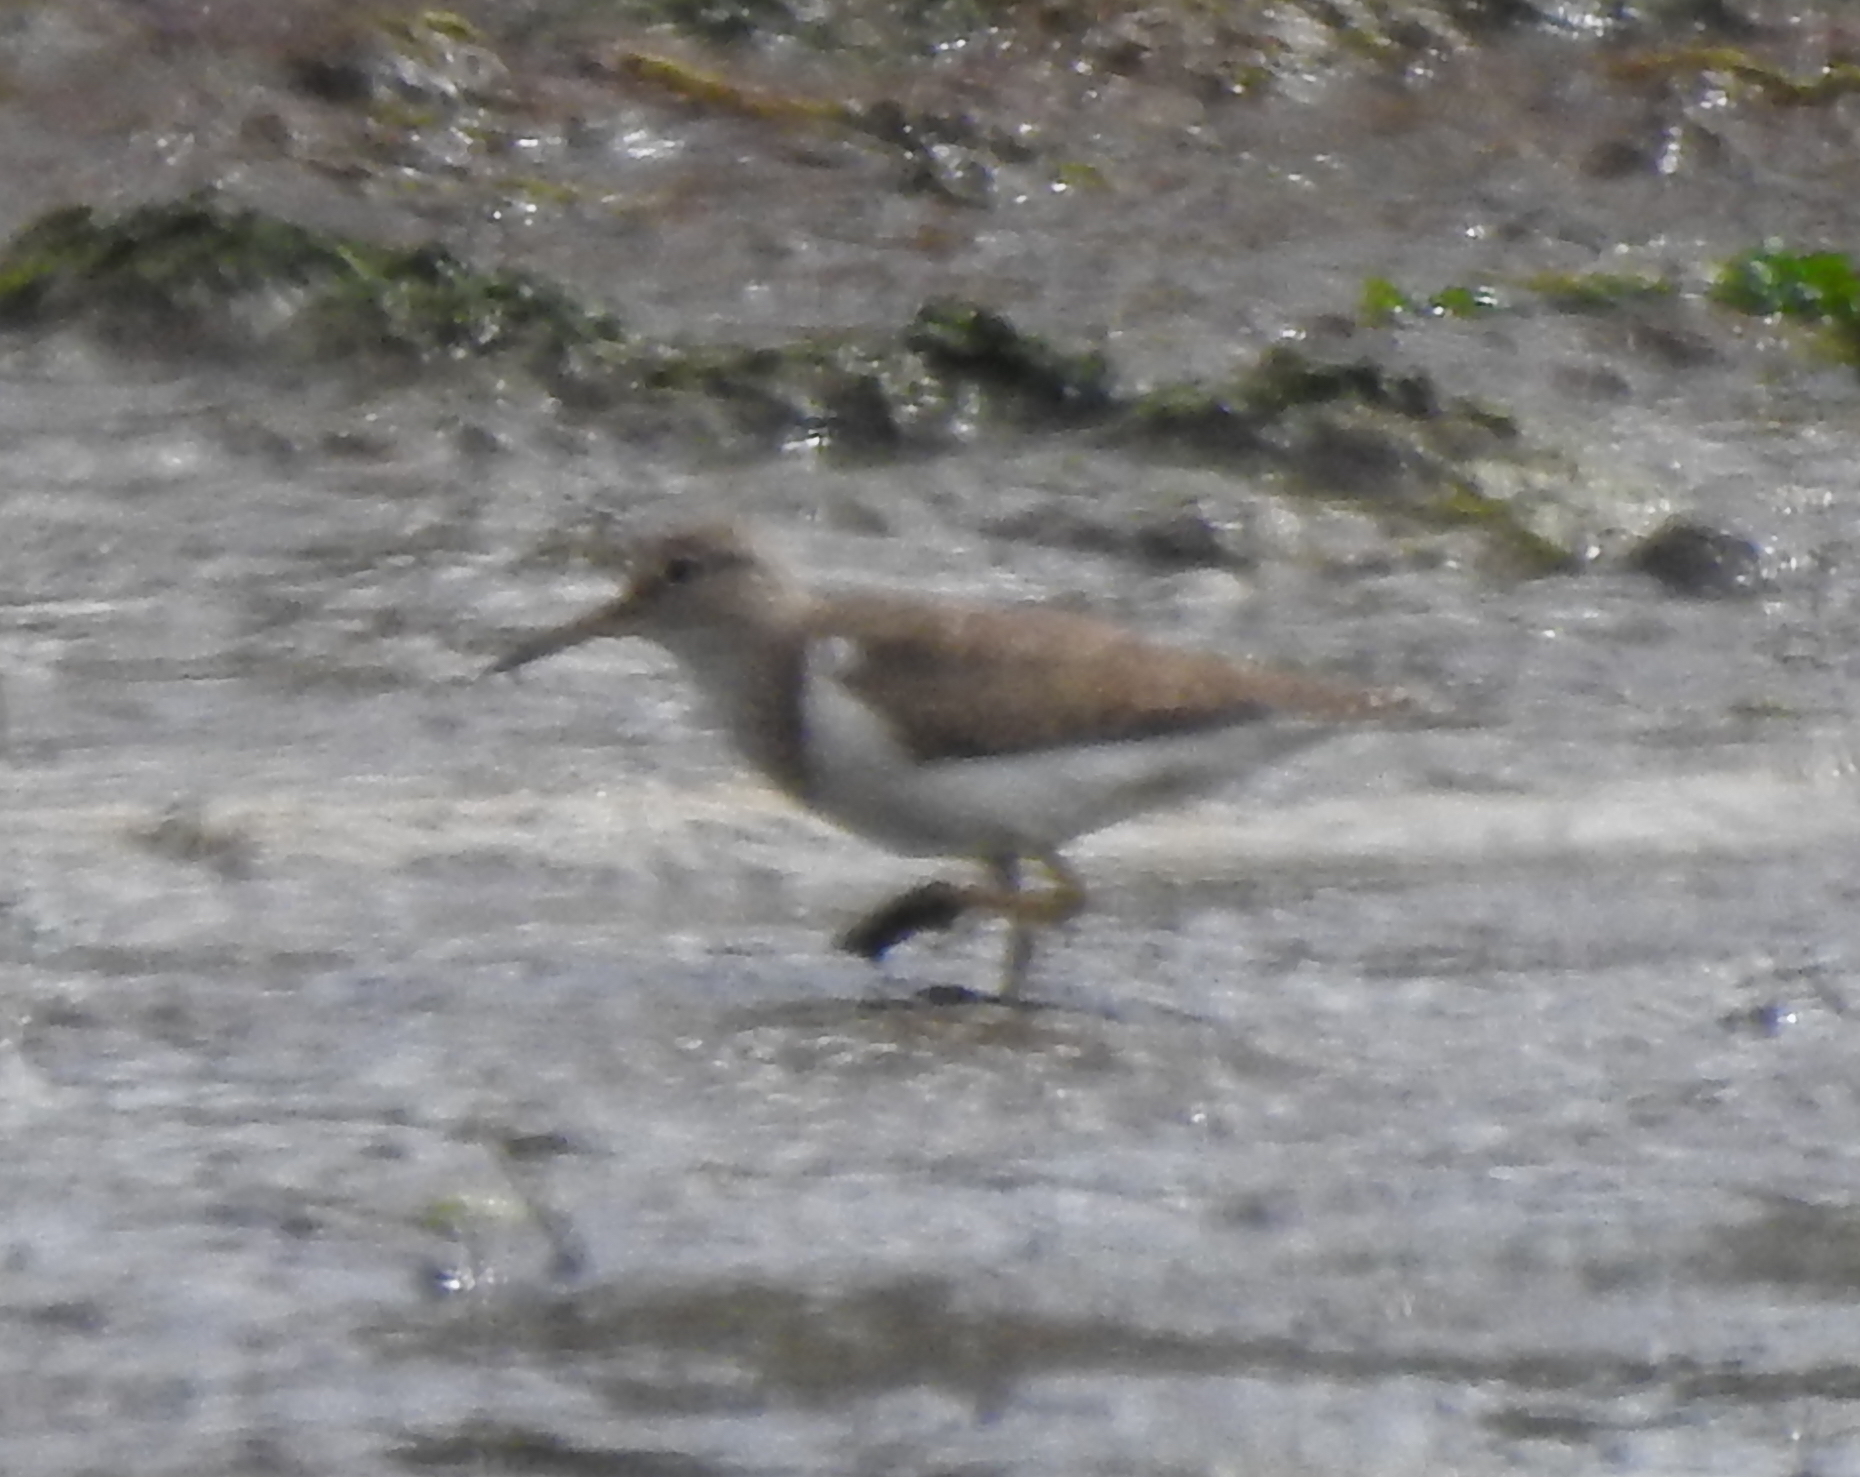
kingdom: Animalia
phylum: Chordata
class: Aves
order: Charadriiformes
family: Scolopacidae
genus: Actitis
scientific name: Actitis hypoleucos
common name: Common sandpiper
